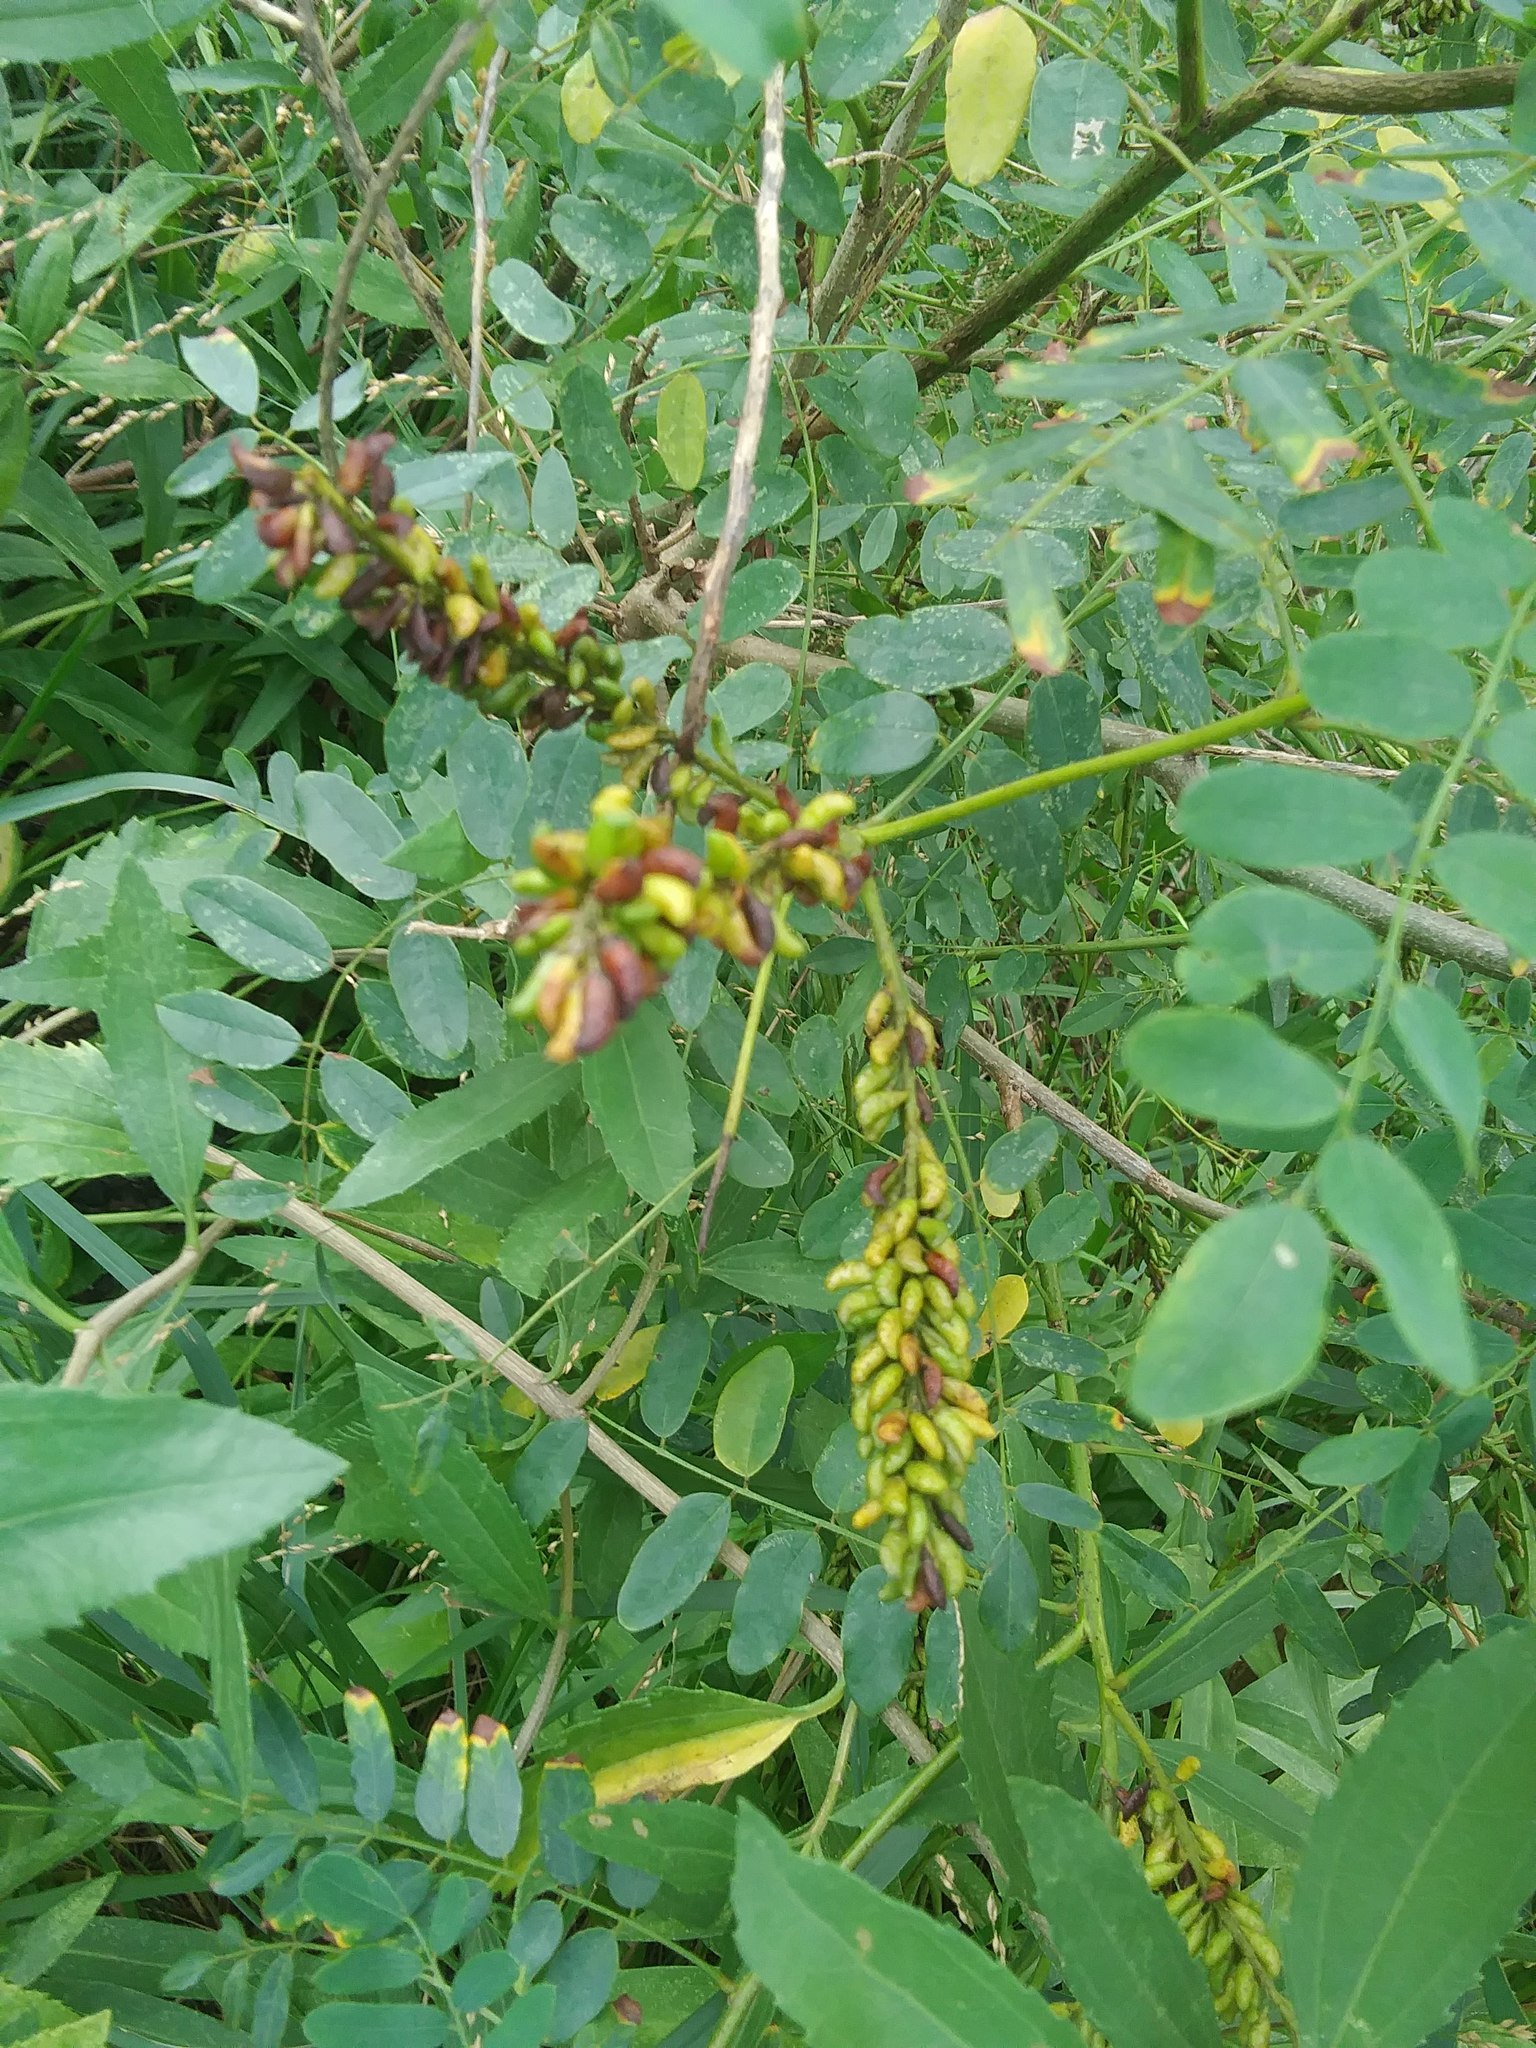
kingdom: Plantae
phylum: Tracheophyta
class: Magnoliopsida
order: Fabales
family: Fabaceae
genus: Amorpha
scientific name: Amorpha fruticosa
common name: False indigo
